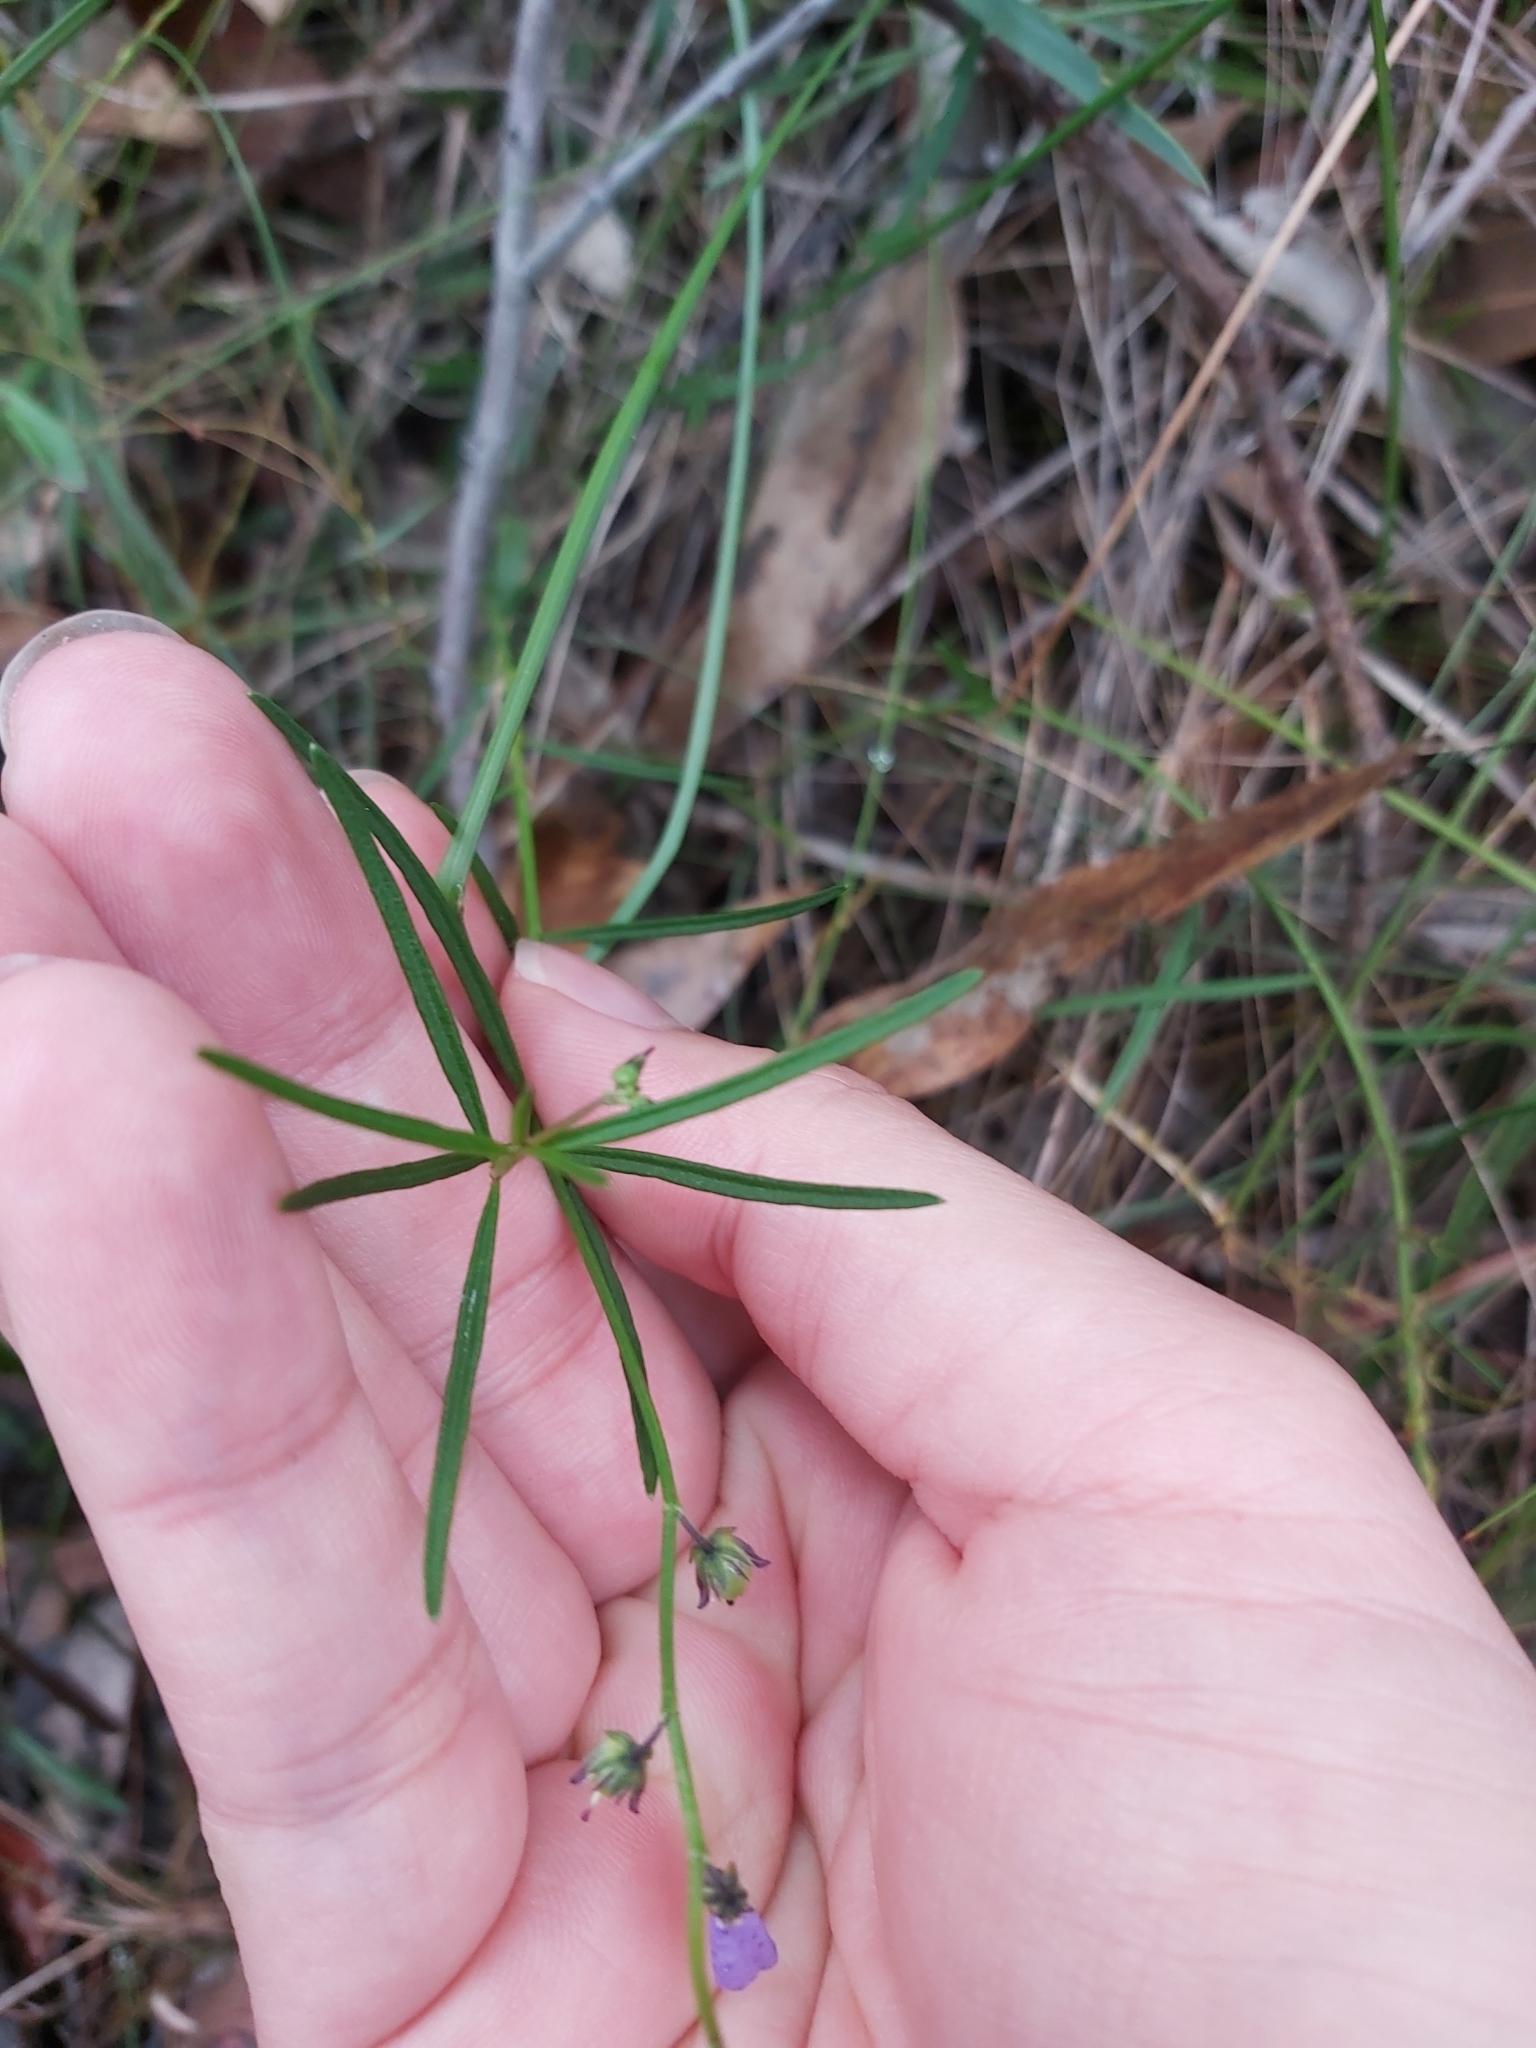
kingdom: Plantae
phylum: Tracheophyta
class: Magnoliopsida
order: Malpighiales
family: Violaceae
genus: Pigea
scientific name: Pigea monopetala
